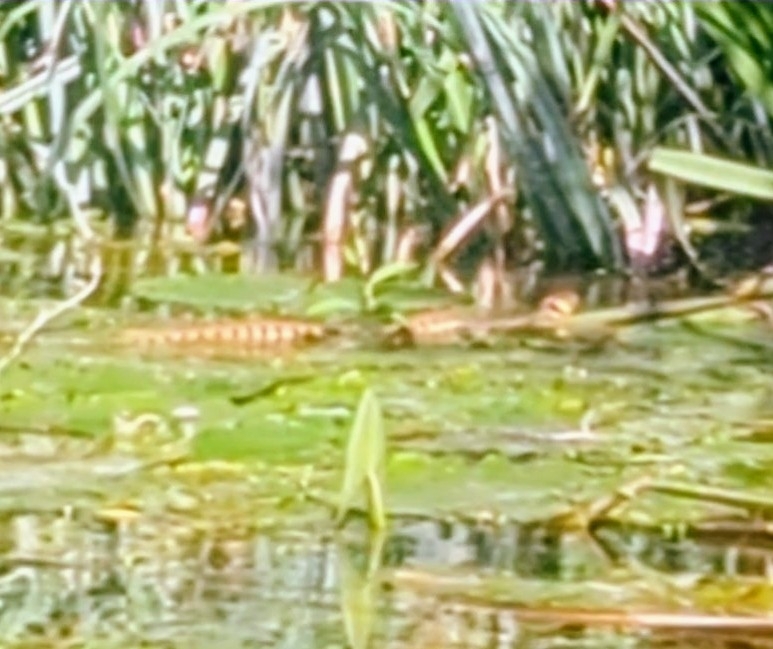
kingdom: Animalia
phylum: Chordata
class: Squamata
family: Colubridae
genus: Natrix
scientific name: Natrix helvetica
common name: Banded grass snake
